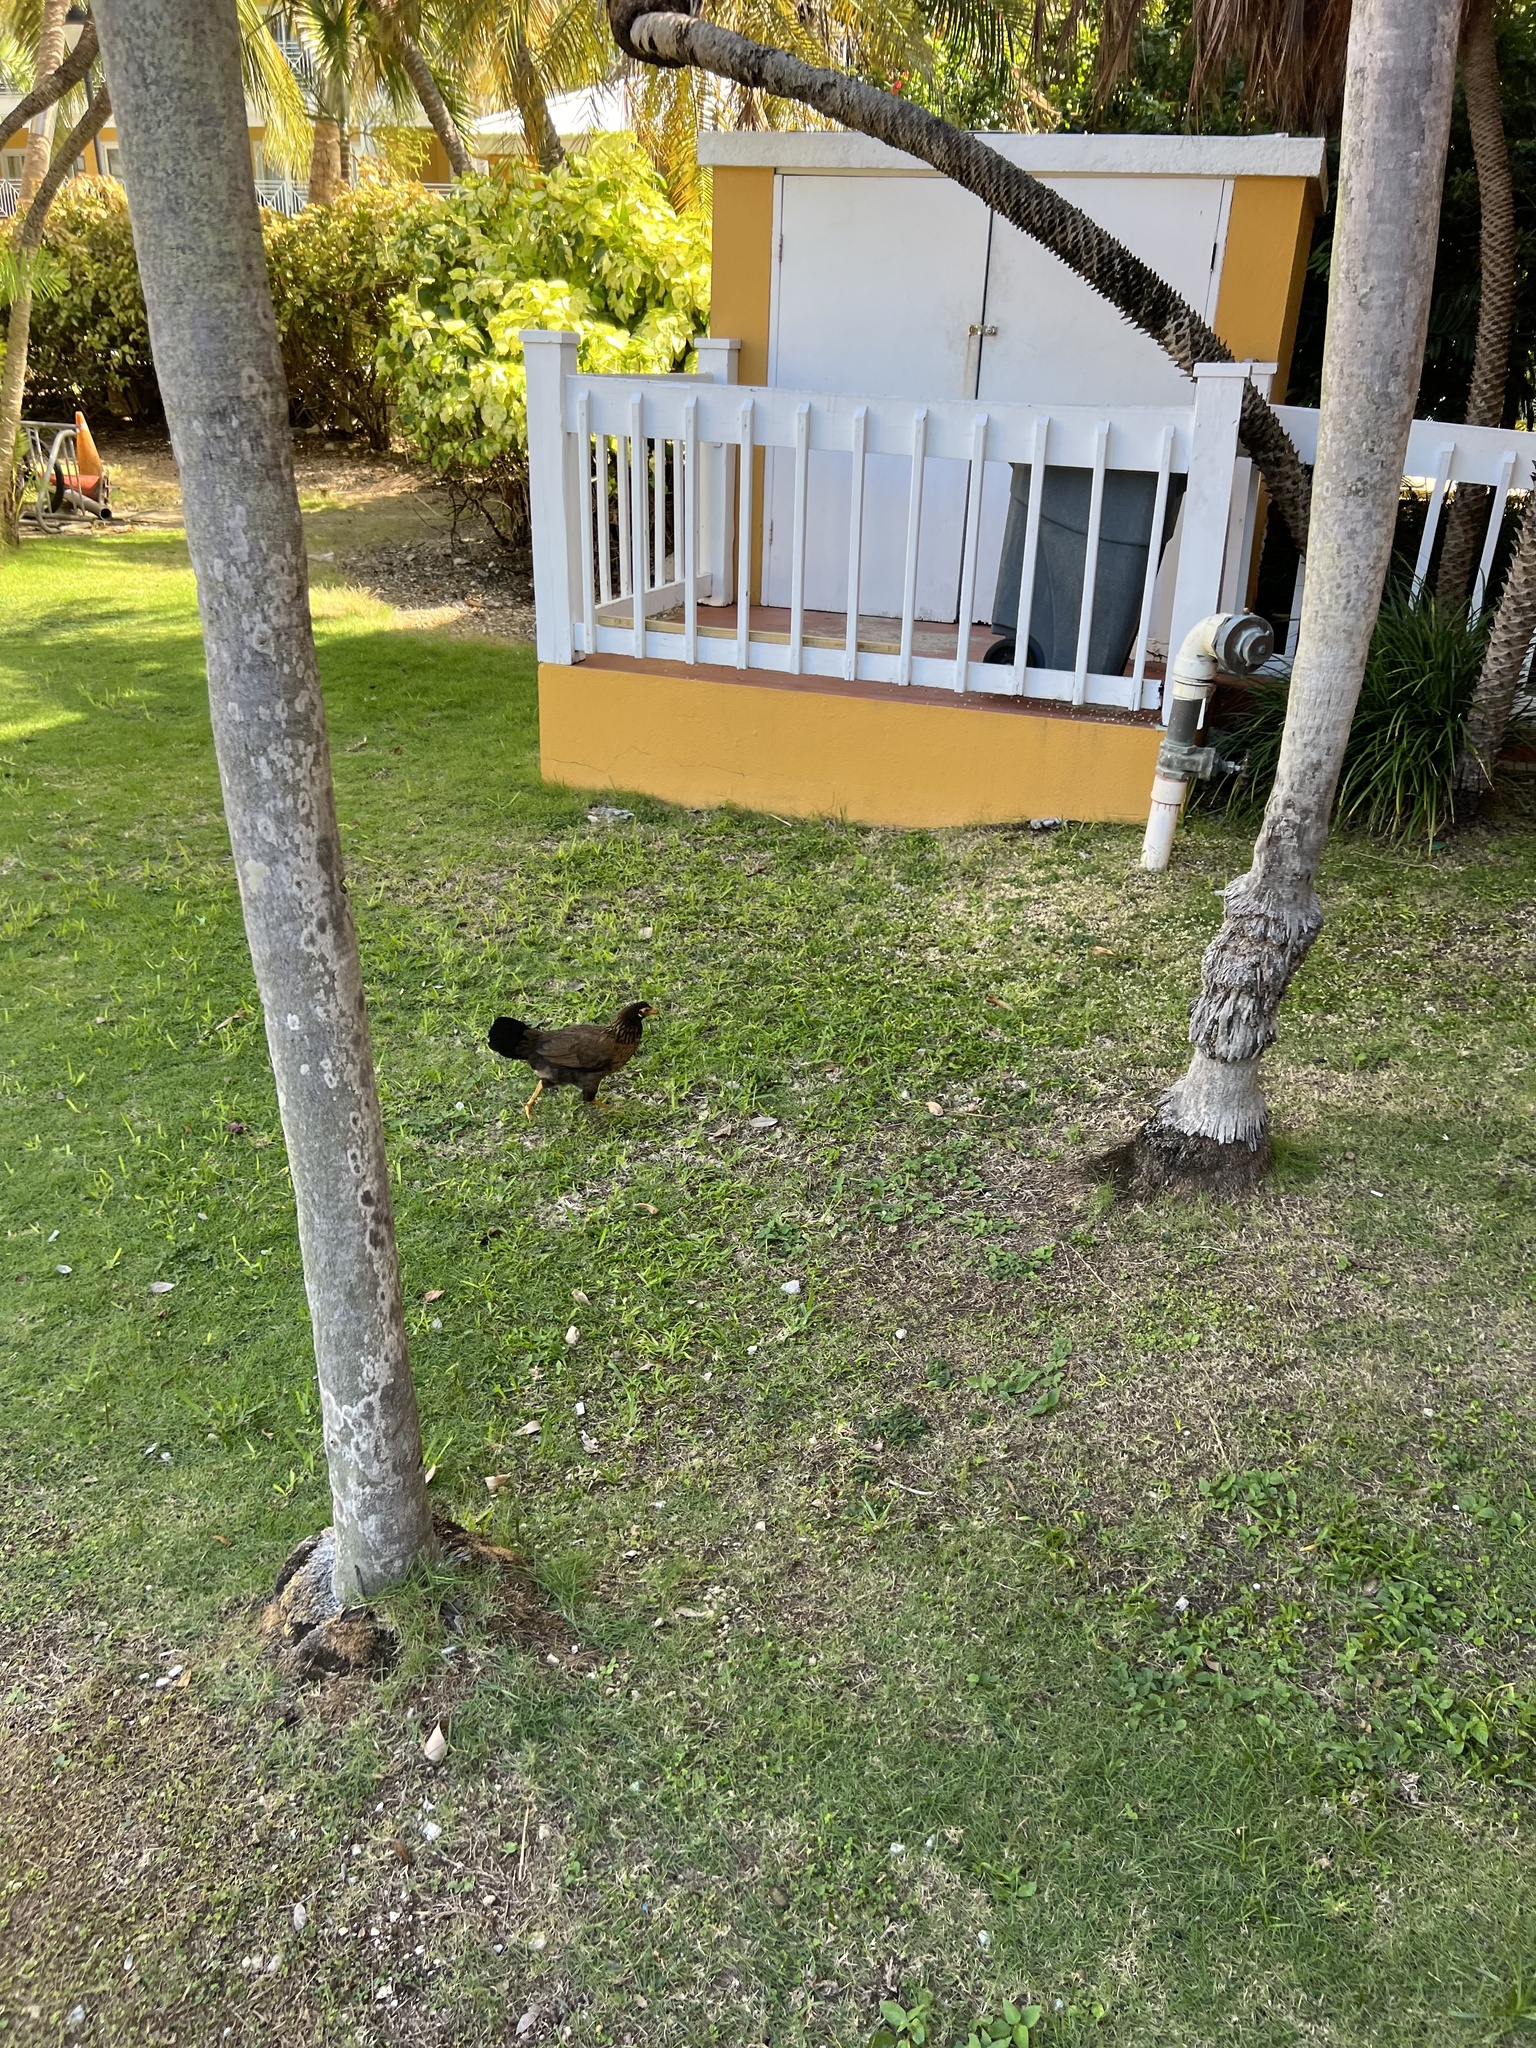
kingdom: Animalia
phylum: Chordata
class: Aves
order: Galliformes
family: Phasianidae
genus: Gallus
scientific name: Gallus gallus
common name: Red junglefowl
